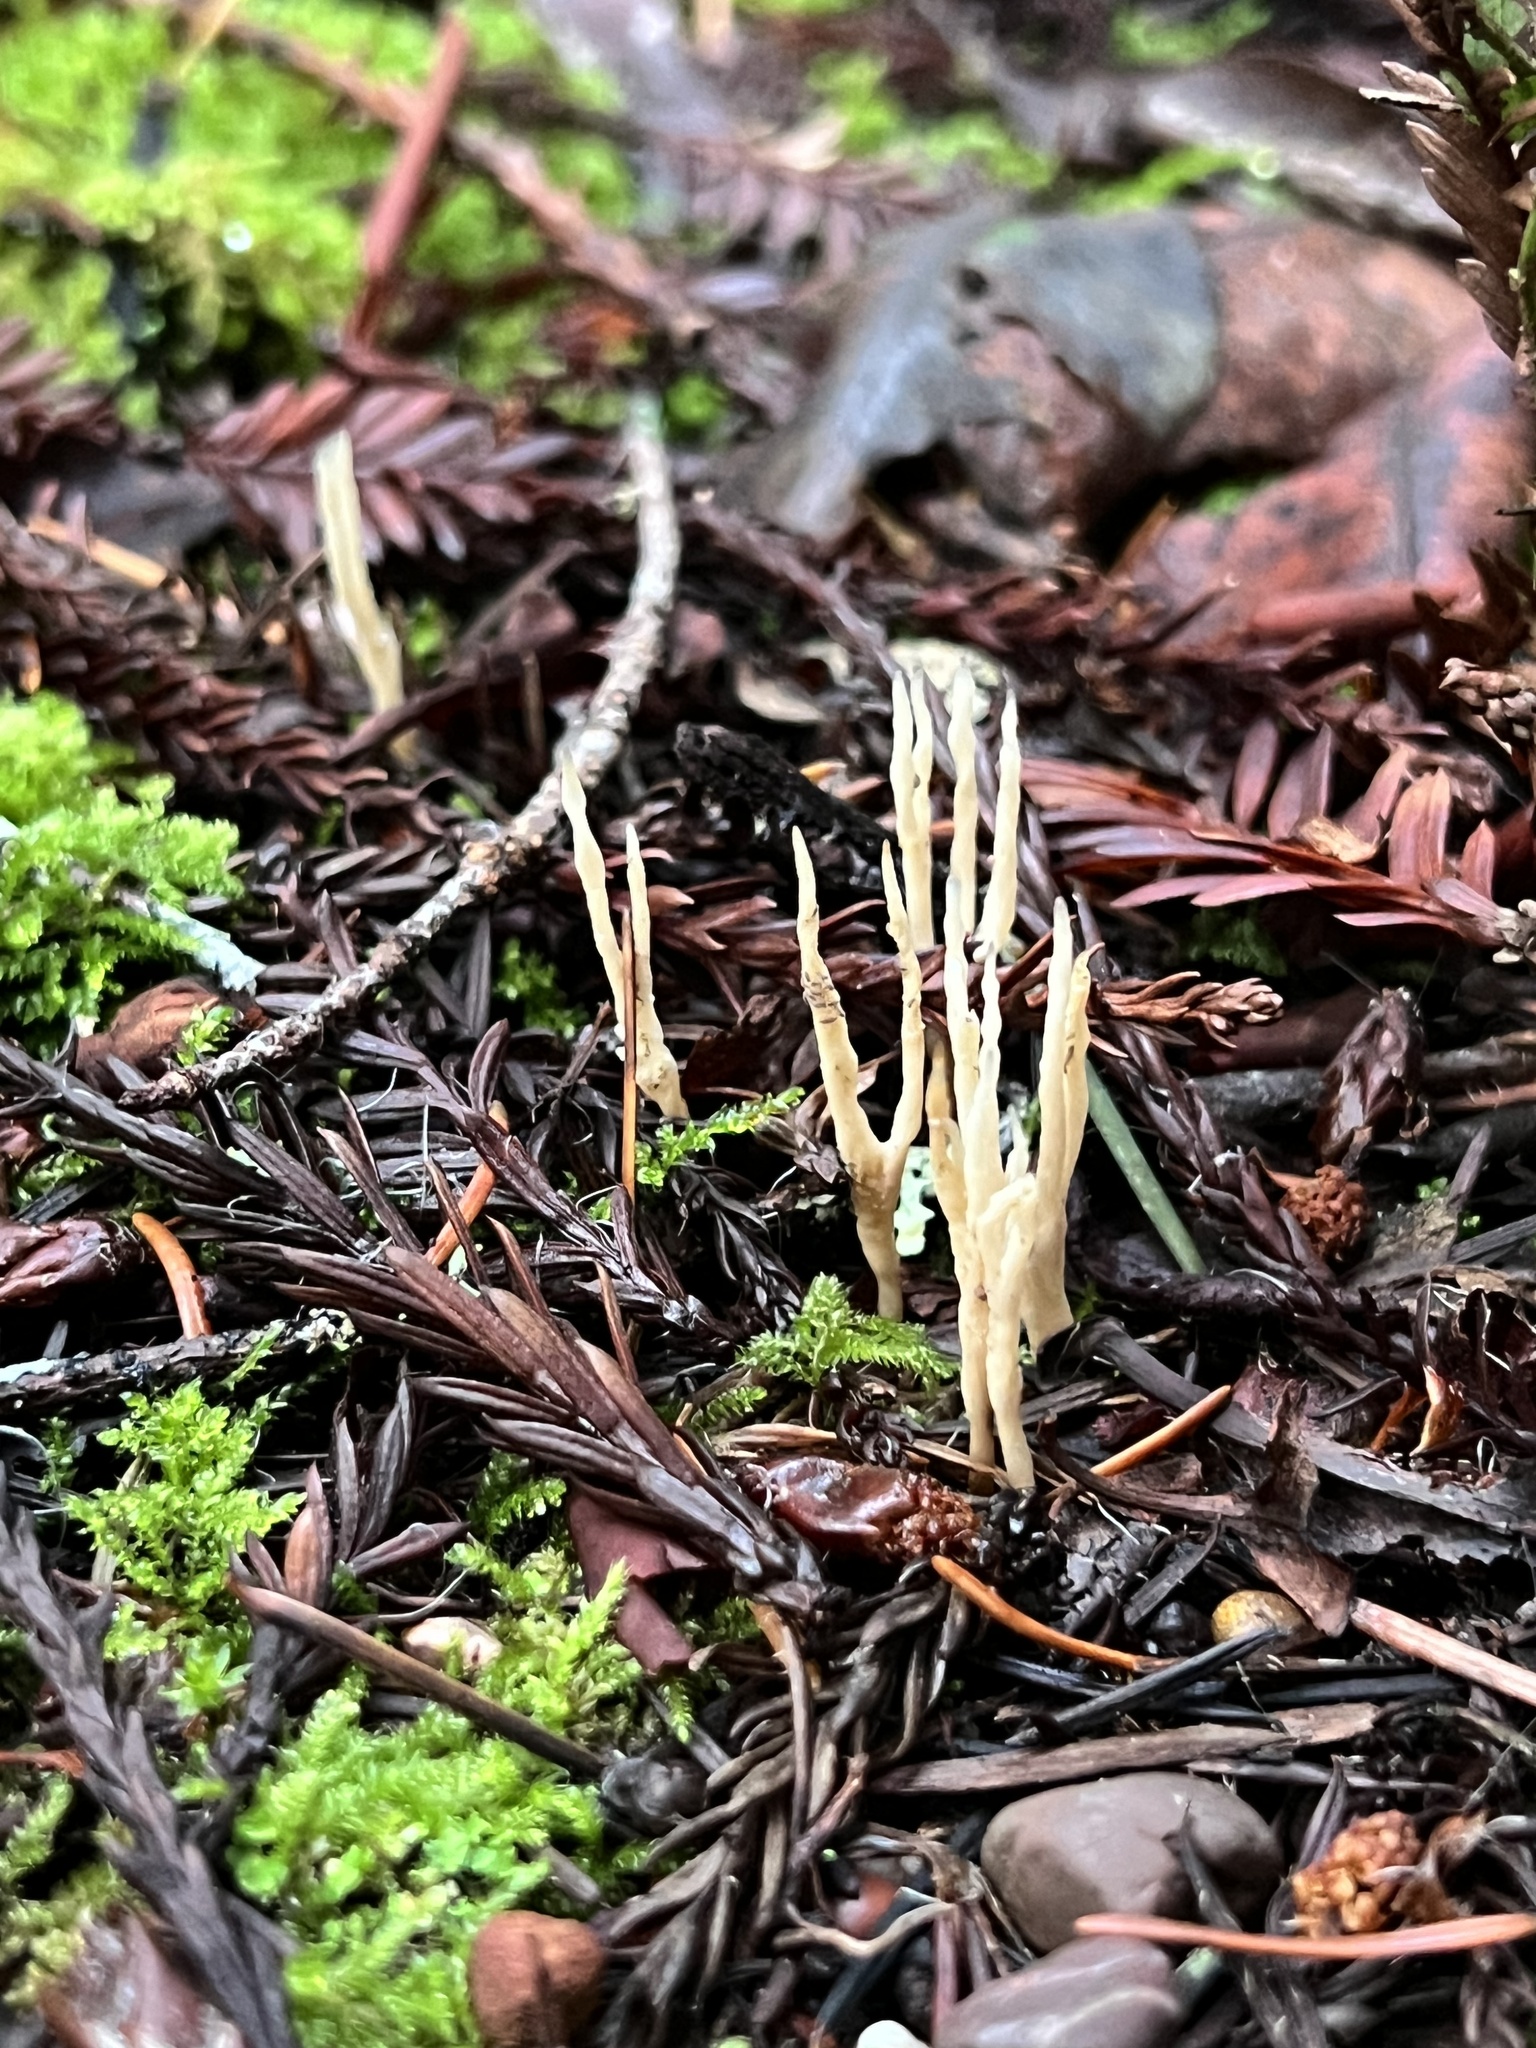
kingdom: Fungi
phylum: Basidiomycota
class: Agaricomycetes
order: Tremellodendropsidales
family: Tremellodendropsidaceae
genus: Tremellodendropsis
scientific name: Tremellodendropsis tuberosa
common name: Ashen coral
